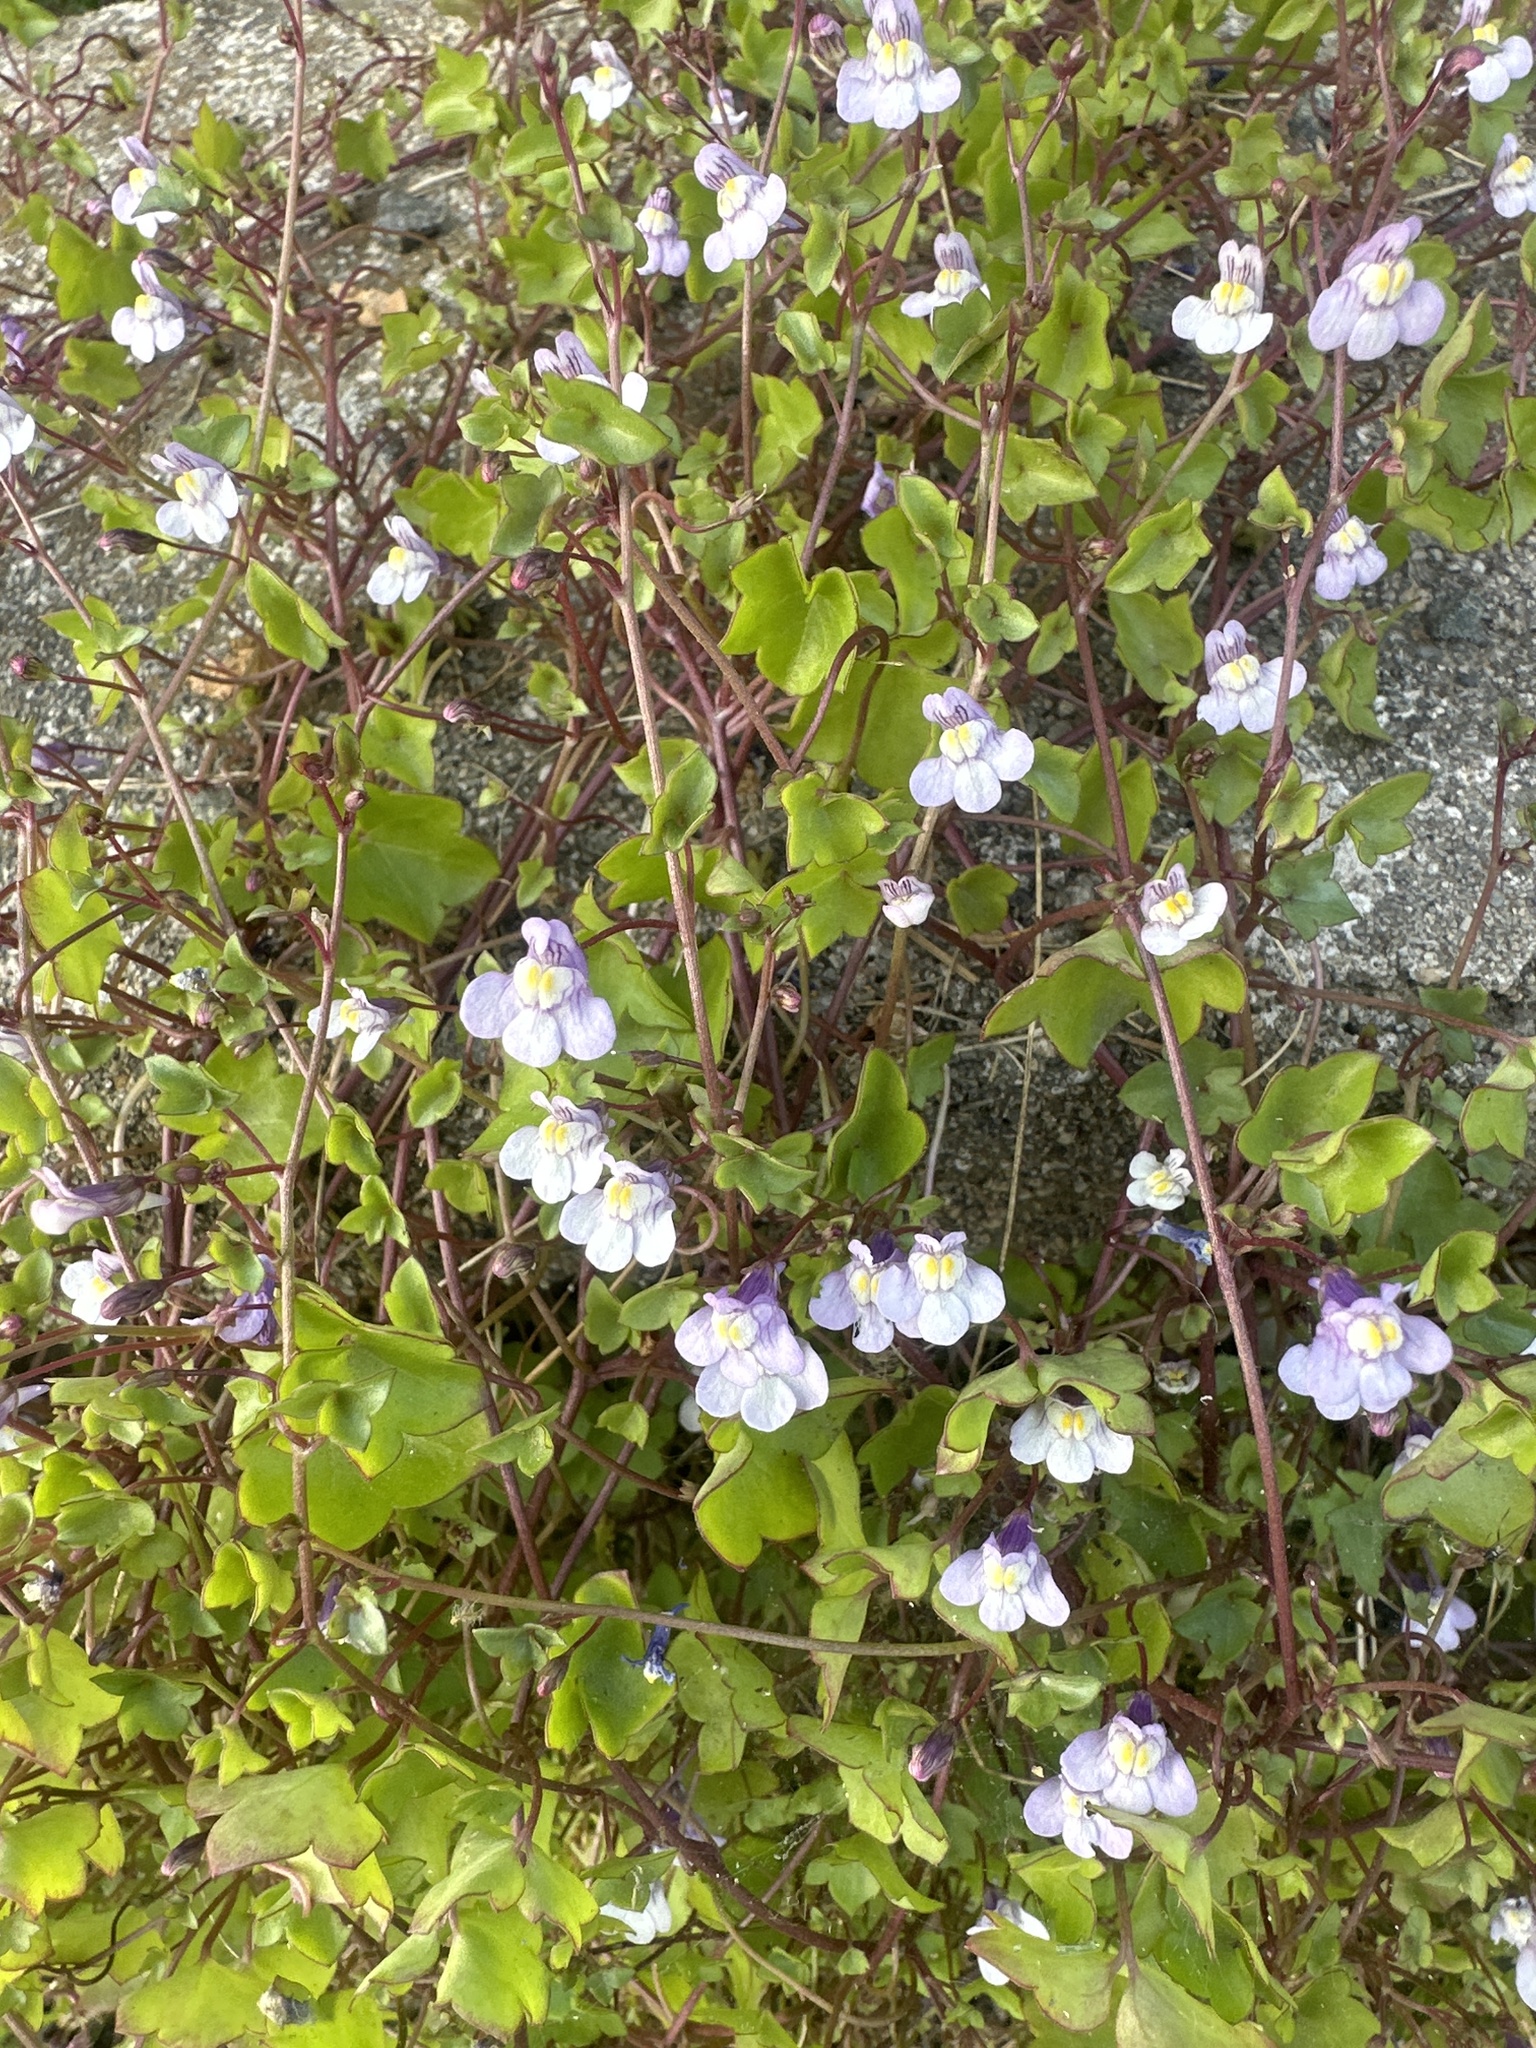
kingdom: Plantae
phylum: Tracheophyta
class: Magnoliopsida
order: Lamiales
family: Plantaginaceae
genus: Cymbalaria
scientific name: Cymbalaria muralis
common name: Ivy-leaved toadflax
